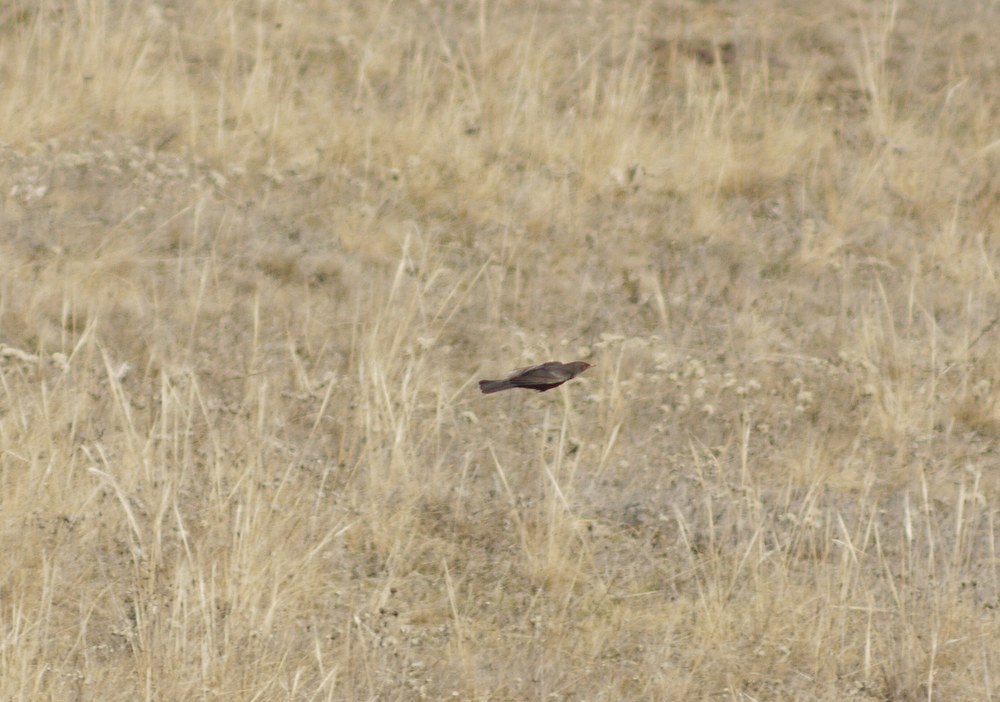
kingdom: Animalia
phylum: Chordata
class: Aves
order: Passeriformes
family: Turdidae
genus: Turdus
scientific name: Turdus merula
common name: Common blackbird
